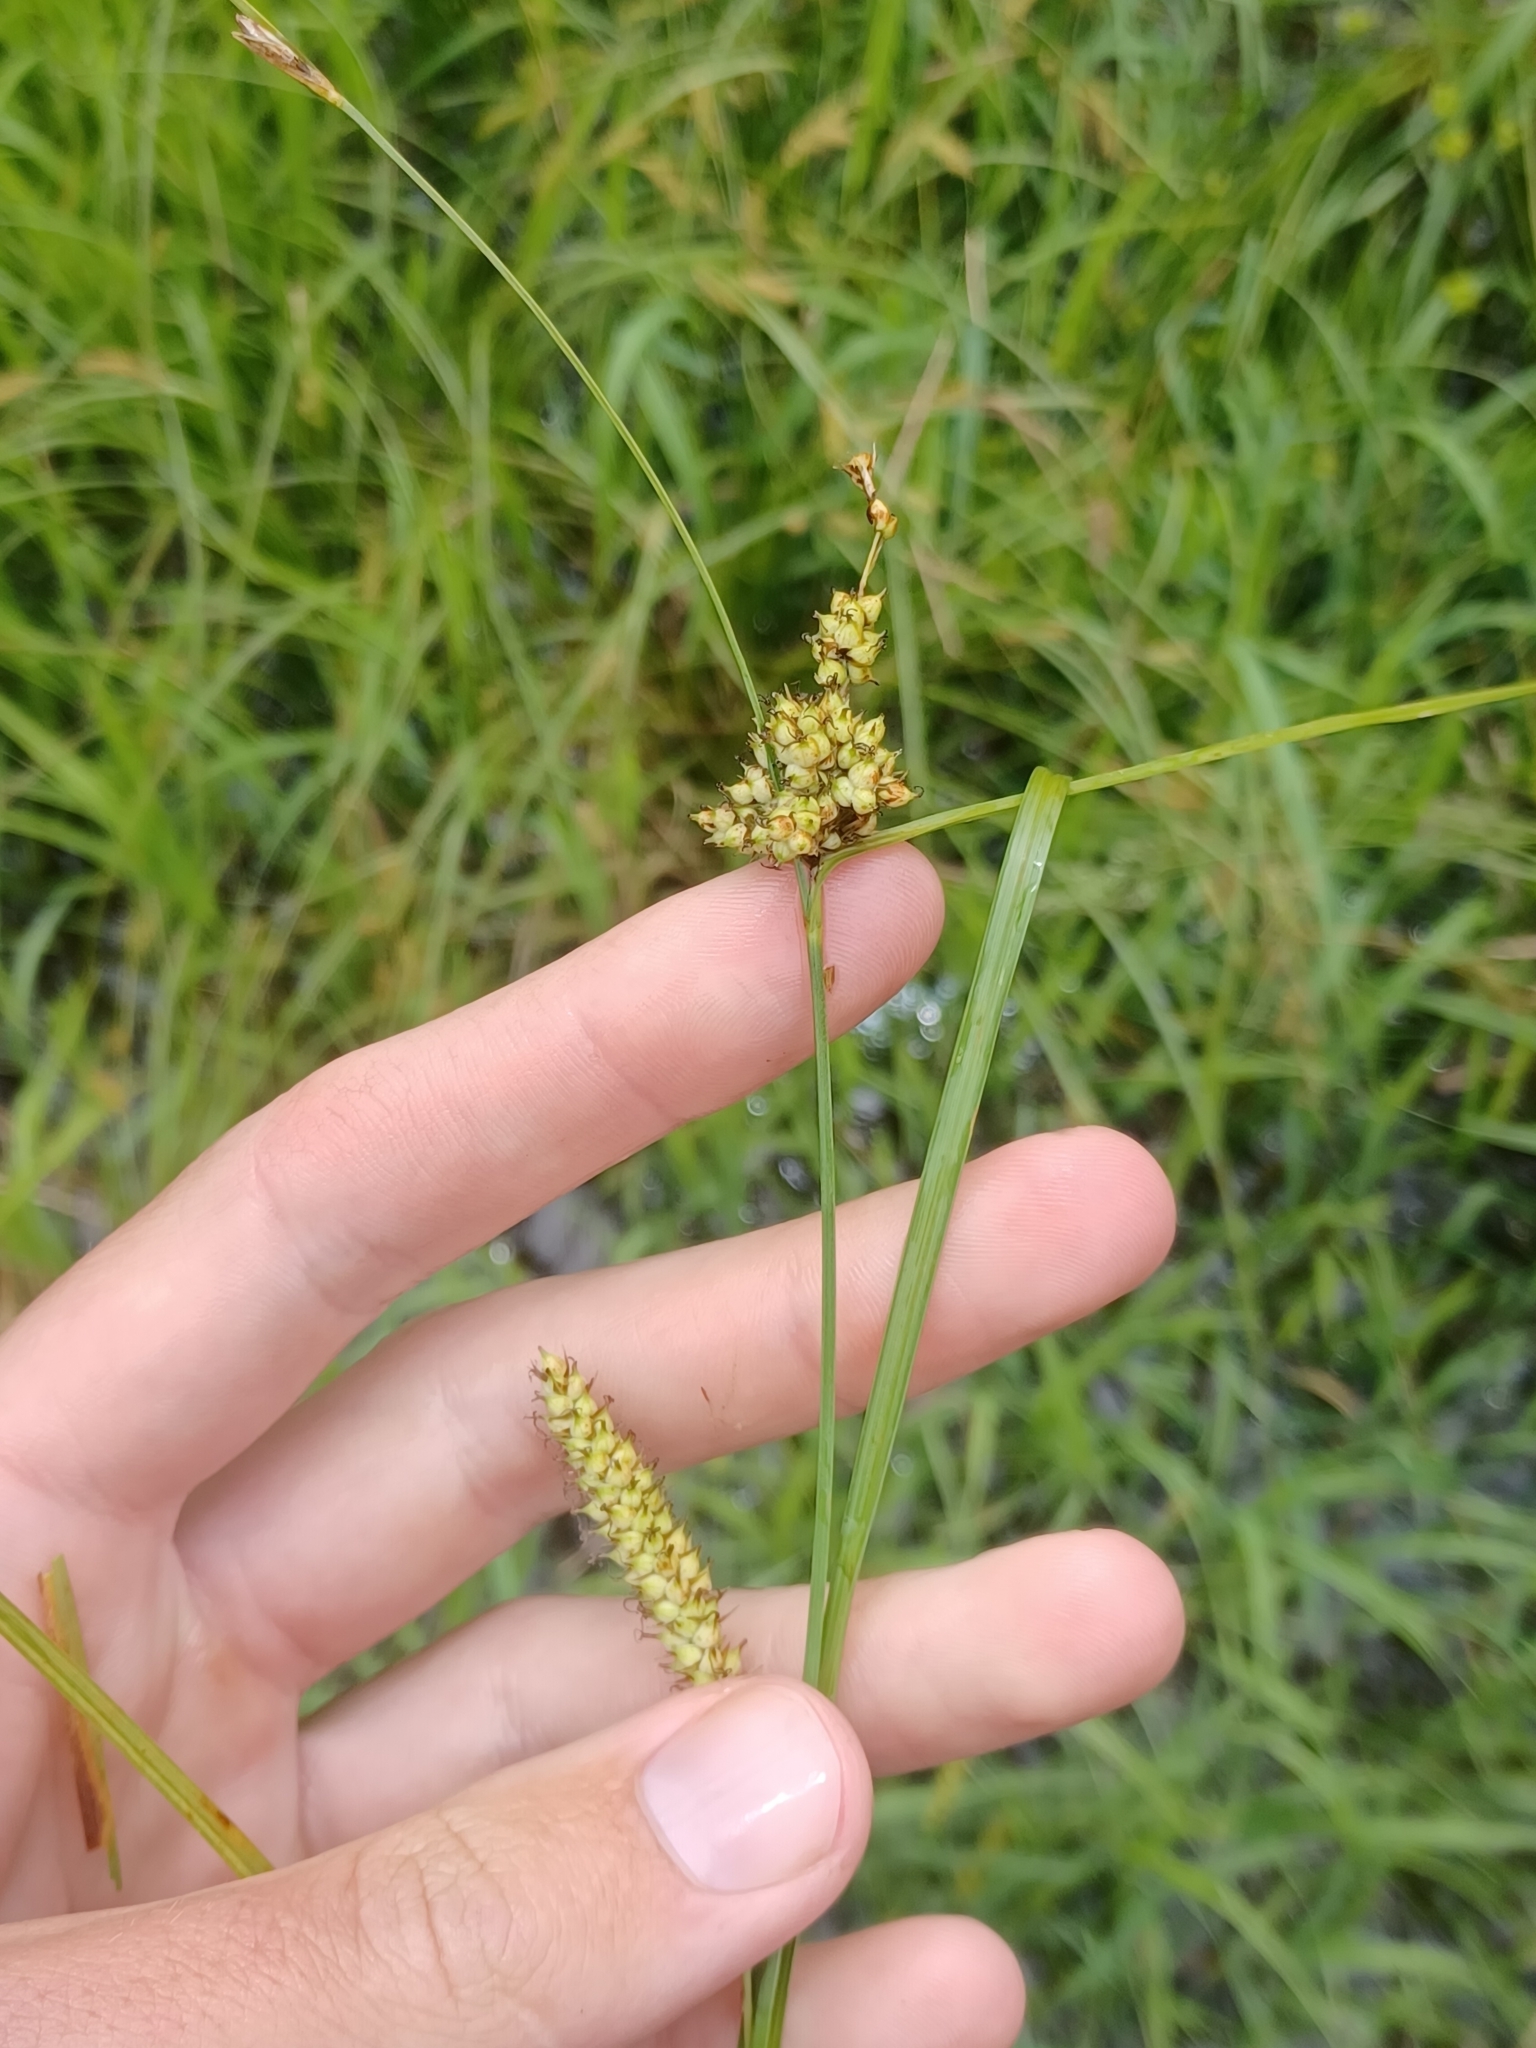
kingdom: Plantae
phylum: Tracheophyta
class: Liliopsida
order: Poales
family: Cyperaceae
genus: Carex
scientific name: Carex pellita
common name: Woolly sedge
